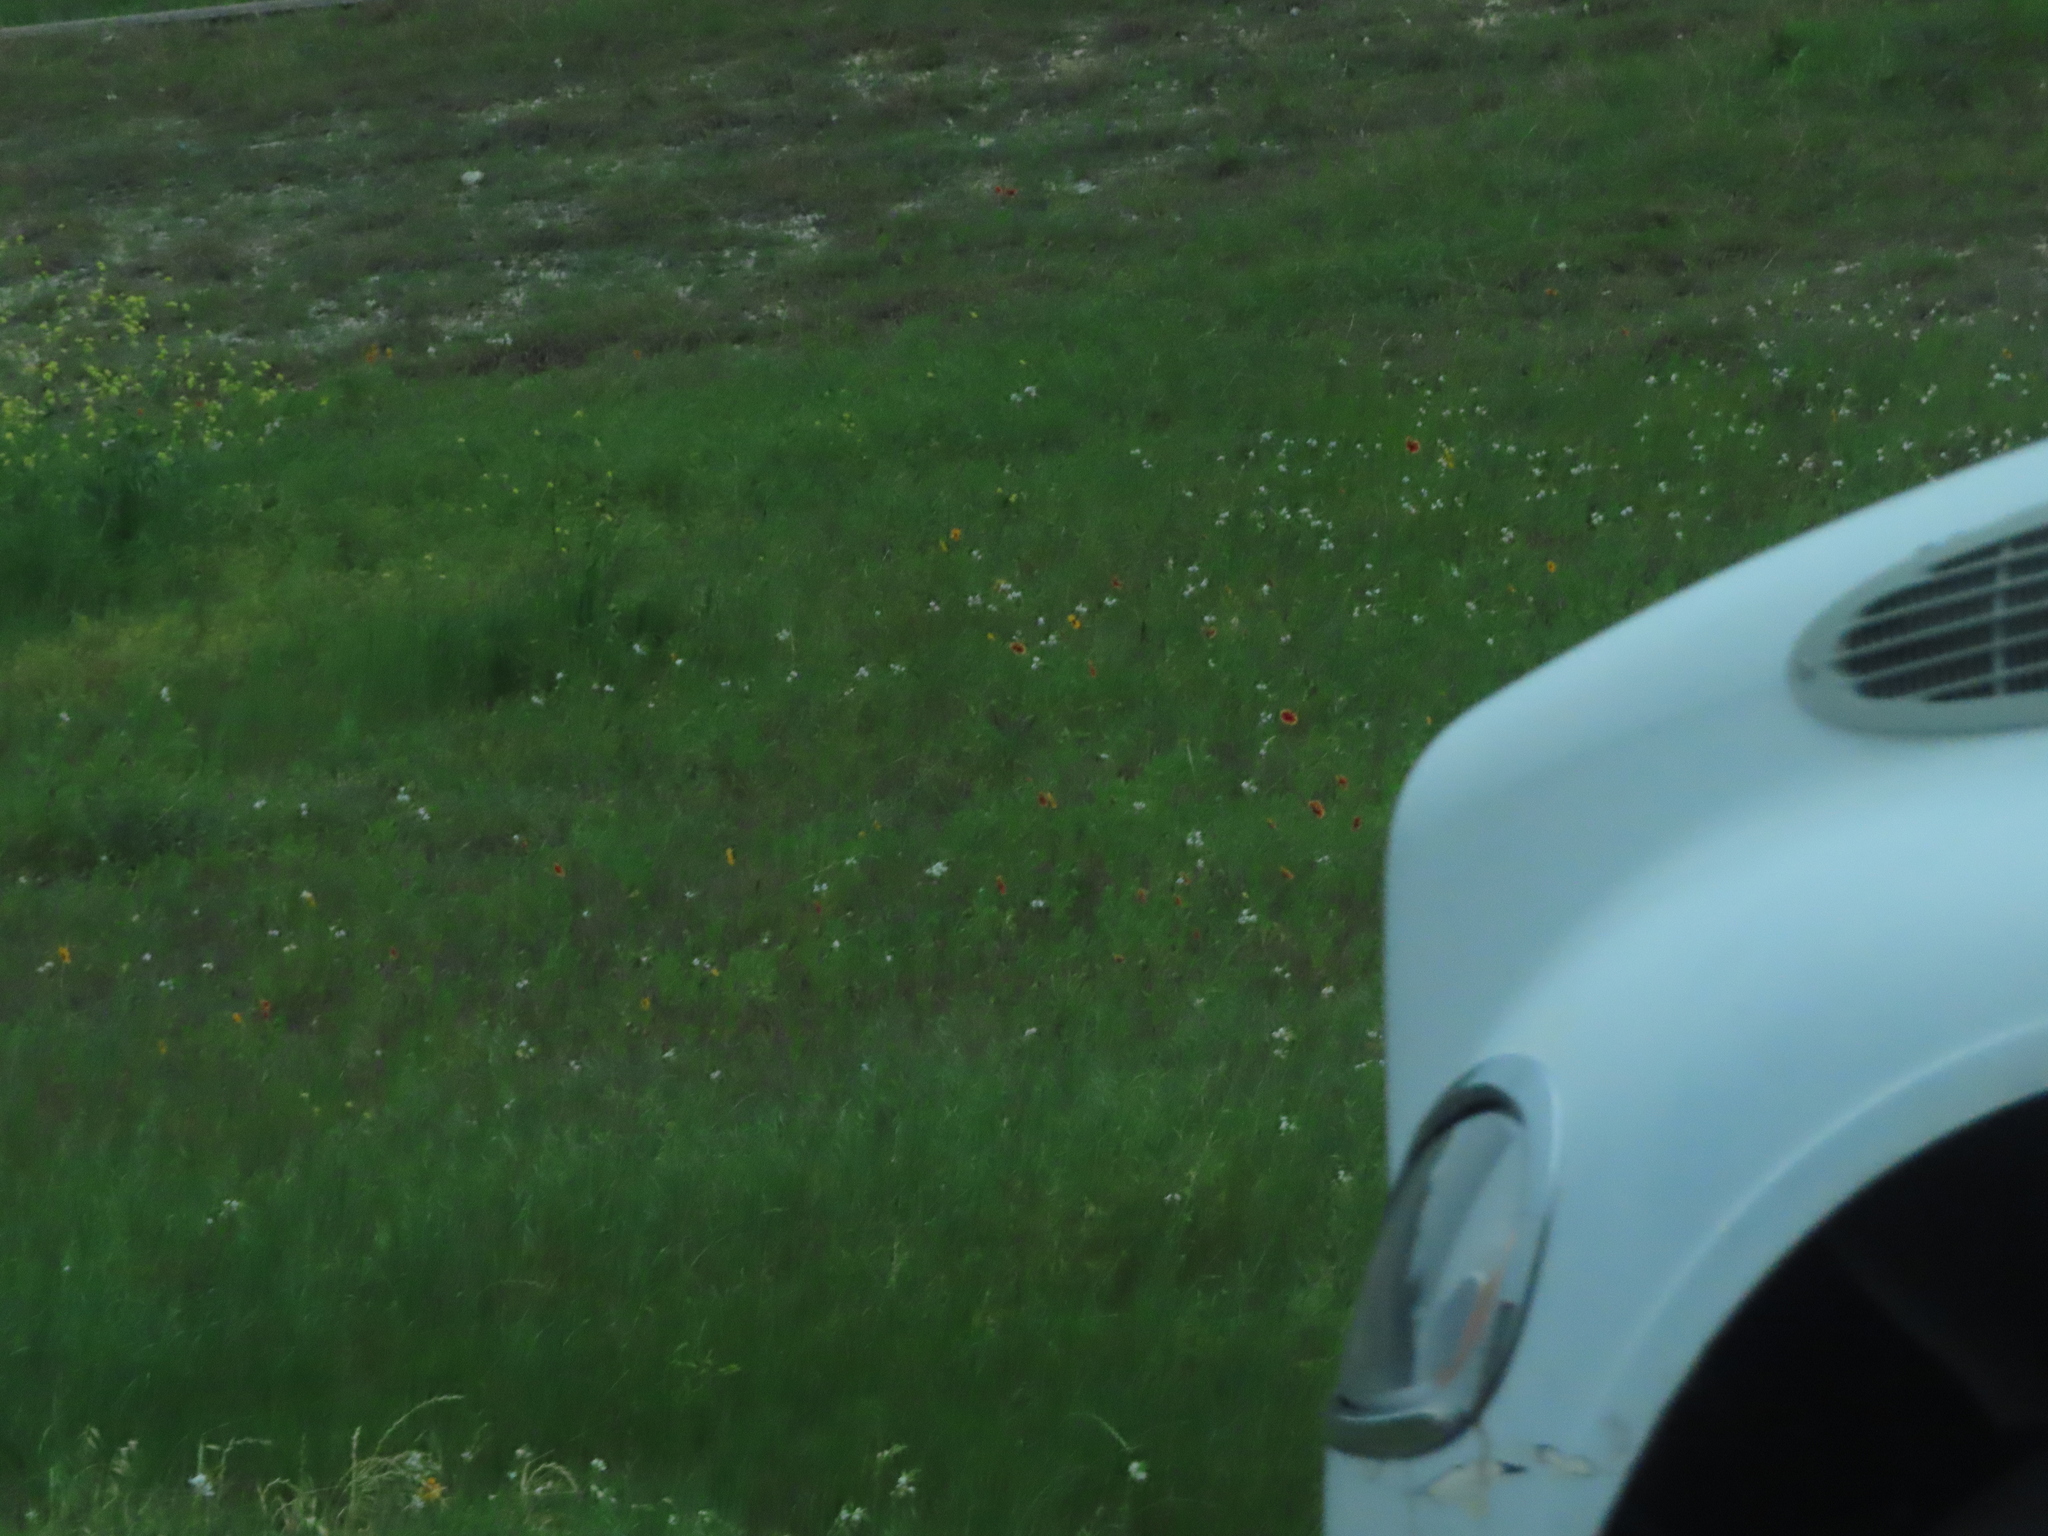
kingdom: Plantae
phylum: Tracheophyta
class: Magnoliopsida
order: Asterales
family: Asteraceae
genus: Gaillardia
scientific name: Gaillardia pulchella
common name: Firewheel
